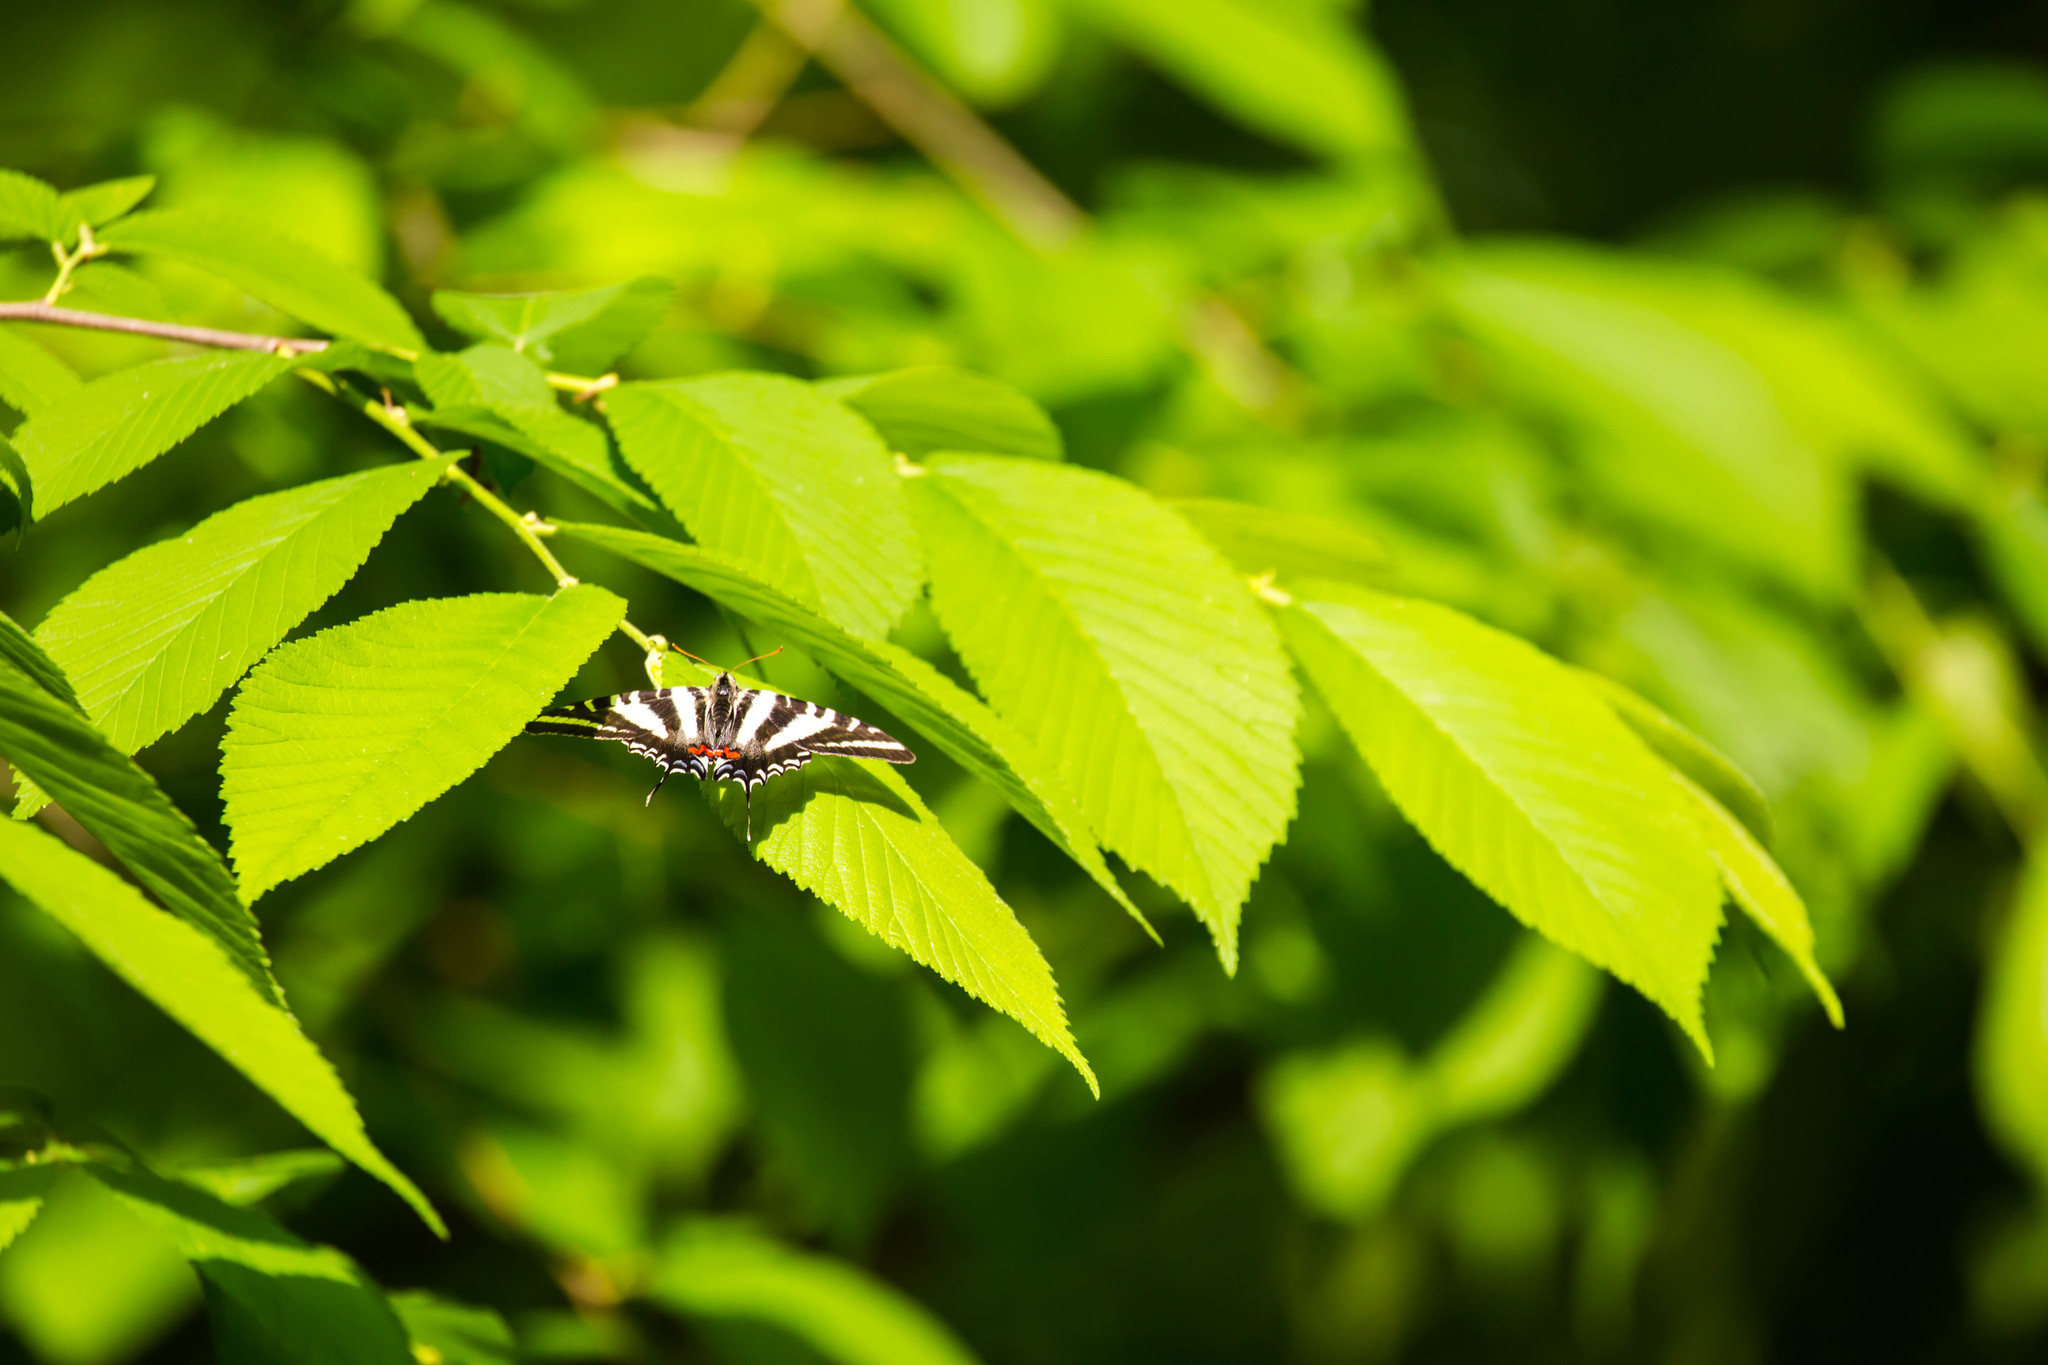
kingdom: Animalia
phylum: Arthropoda
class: Insecta
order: Lepidoptera
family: Papilionidae
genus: Protographium
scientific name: Protographium marcellus
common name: Zebra swallowtail
